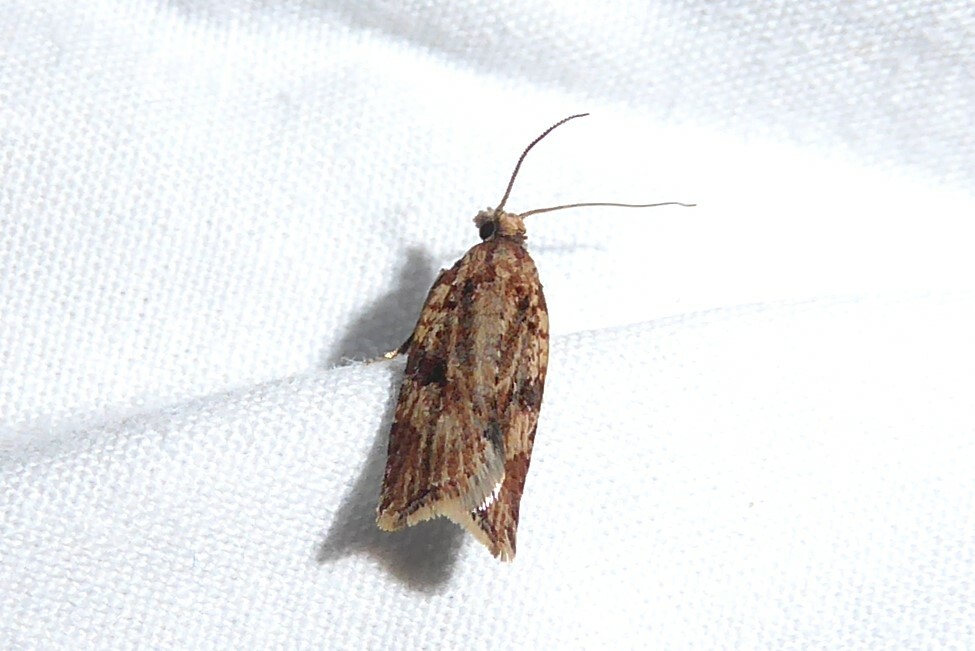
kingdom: Animalia
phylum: Arthropoda
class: Insecta
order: Lepidoptera
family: Tortricidae
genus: Capua
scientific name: Capua semiferana
